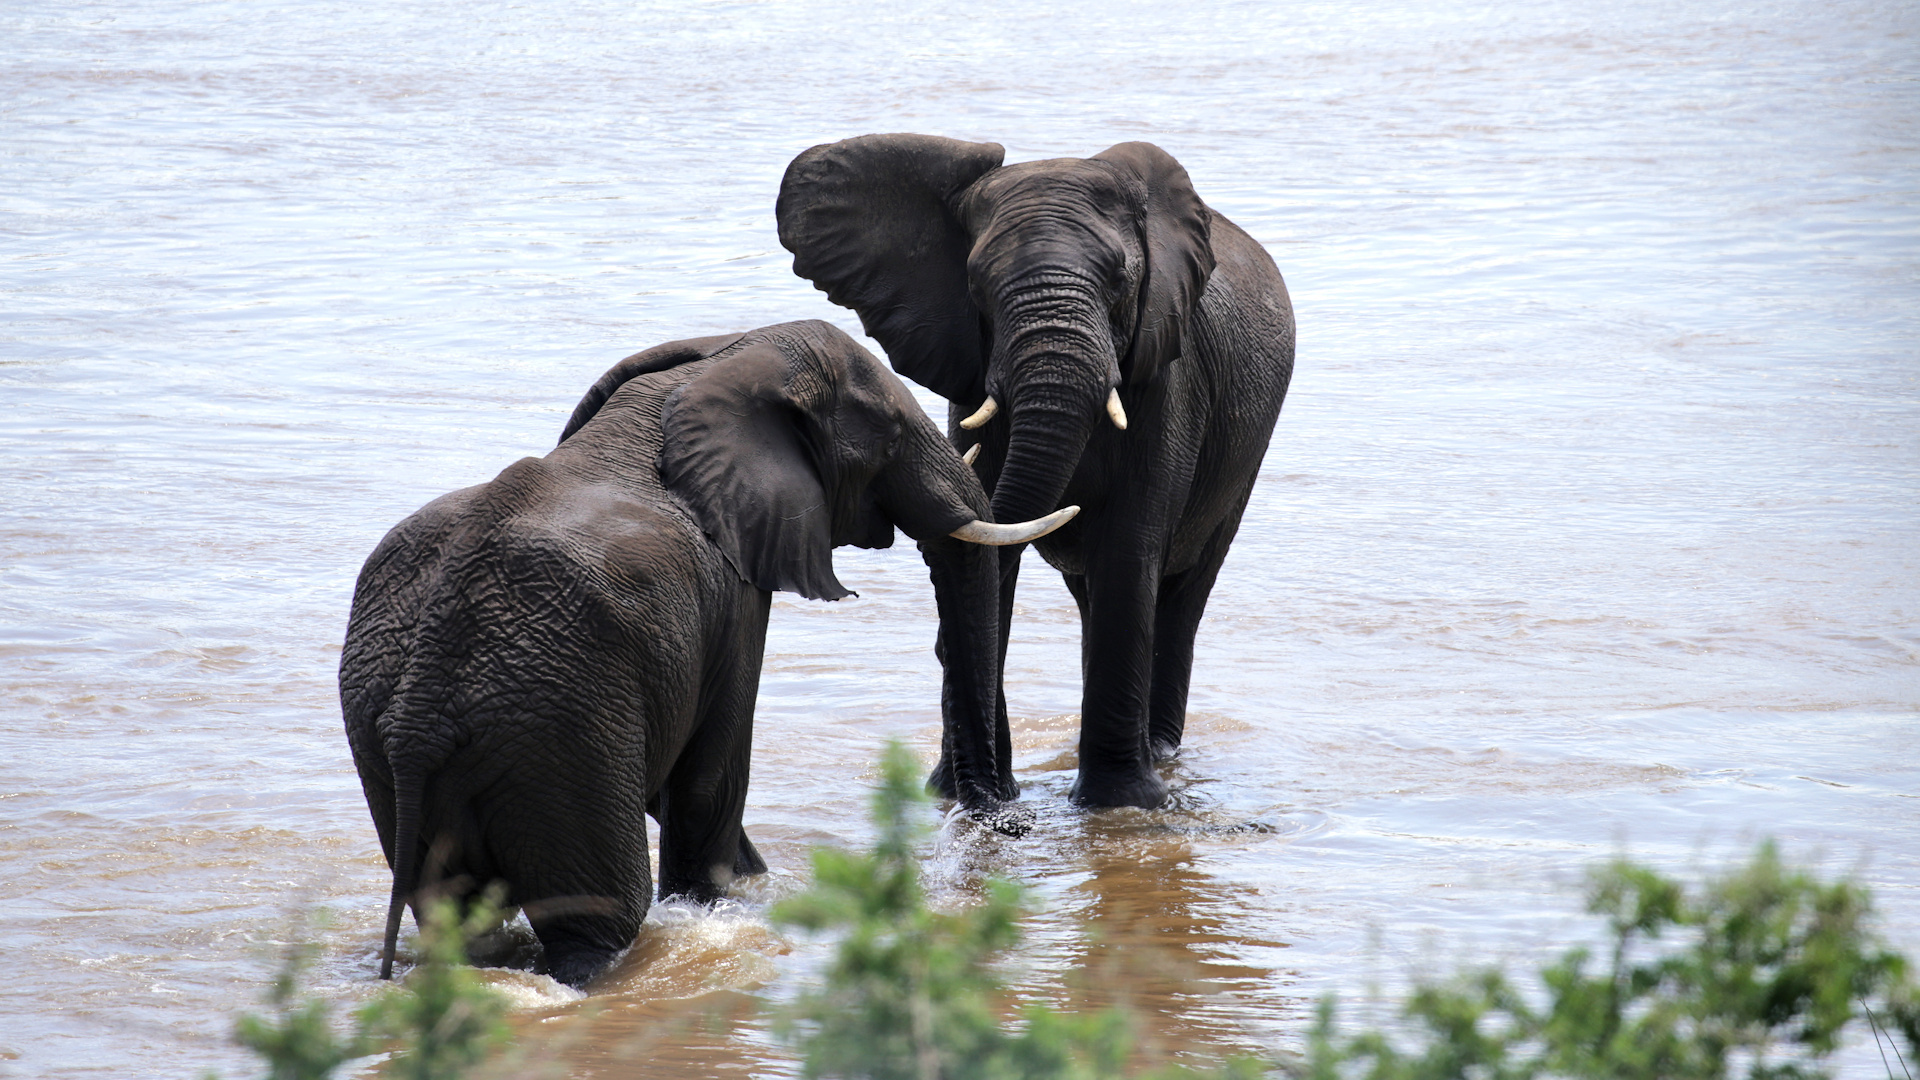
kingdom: Animalia
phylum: Chordata
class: Mammalia
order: Proboscidea
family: Elephantidae
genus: Loxodonta
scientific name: Loxodonta africana
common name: African elephant
